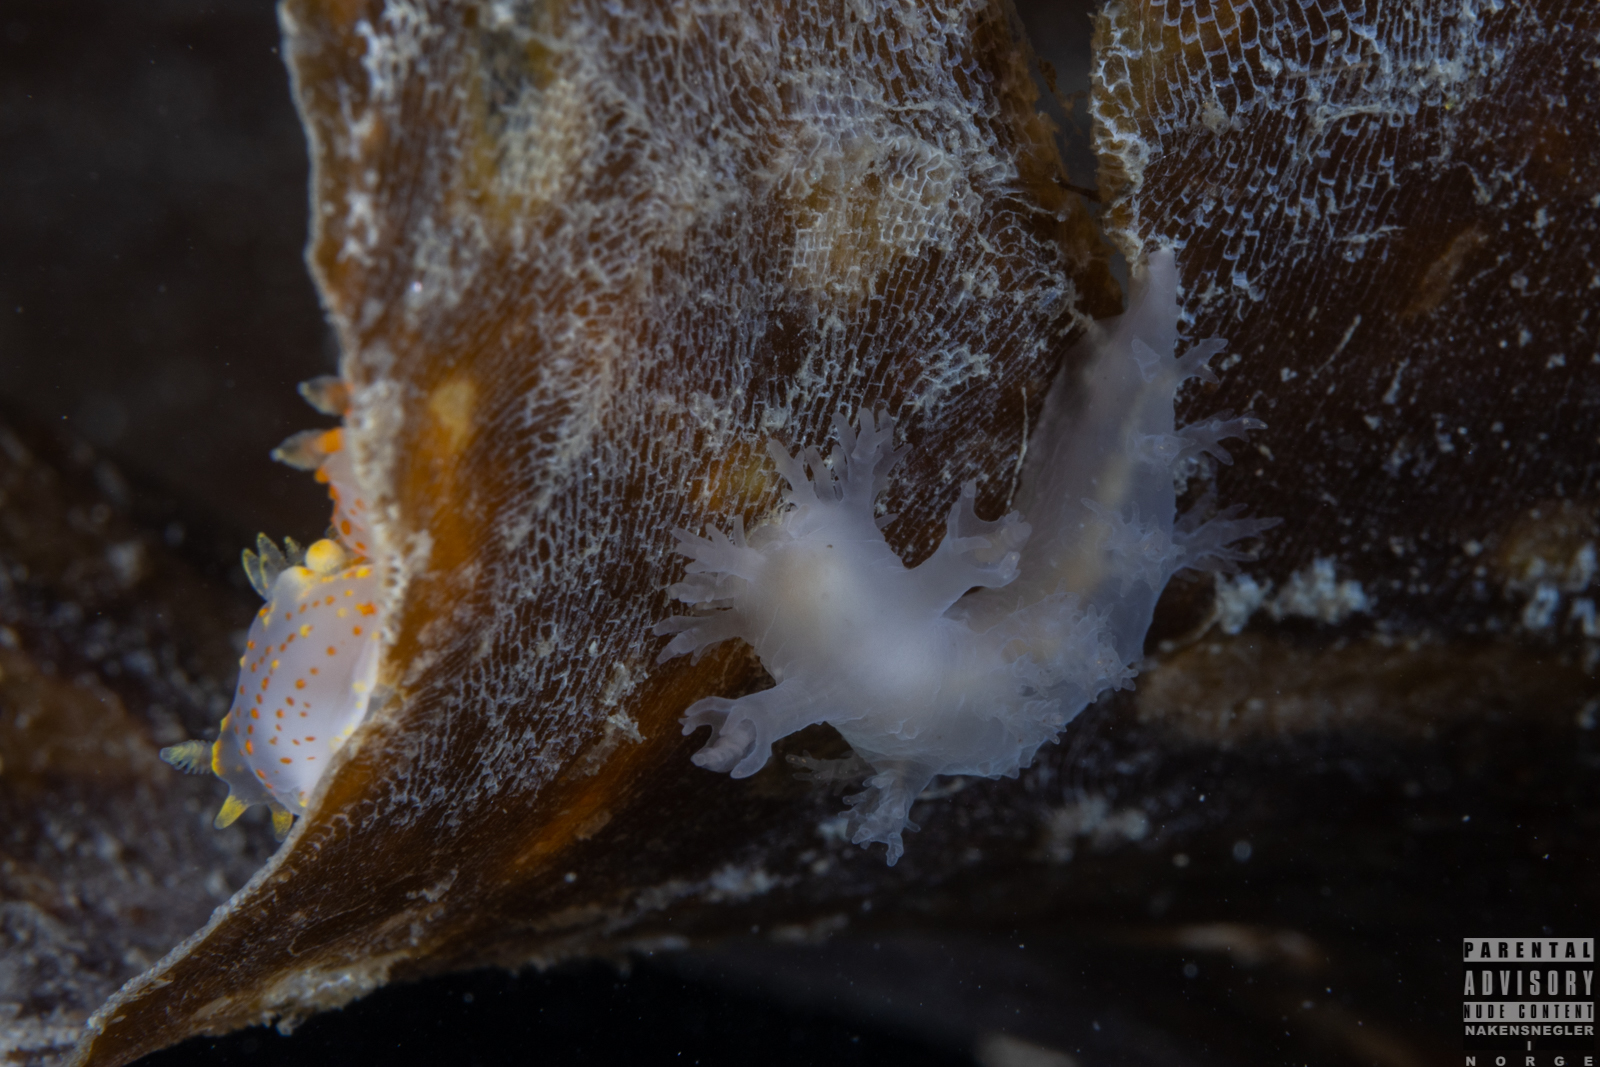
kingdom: Animalia
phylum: Mollusca
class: Gastropoda
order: Nudibranchia
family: Dendronotidae
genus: Dendronotus
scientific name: Dendronotus lacteus
